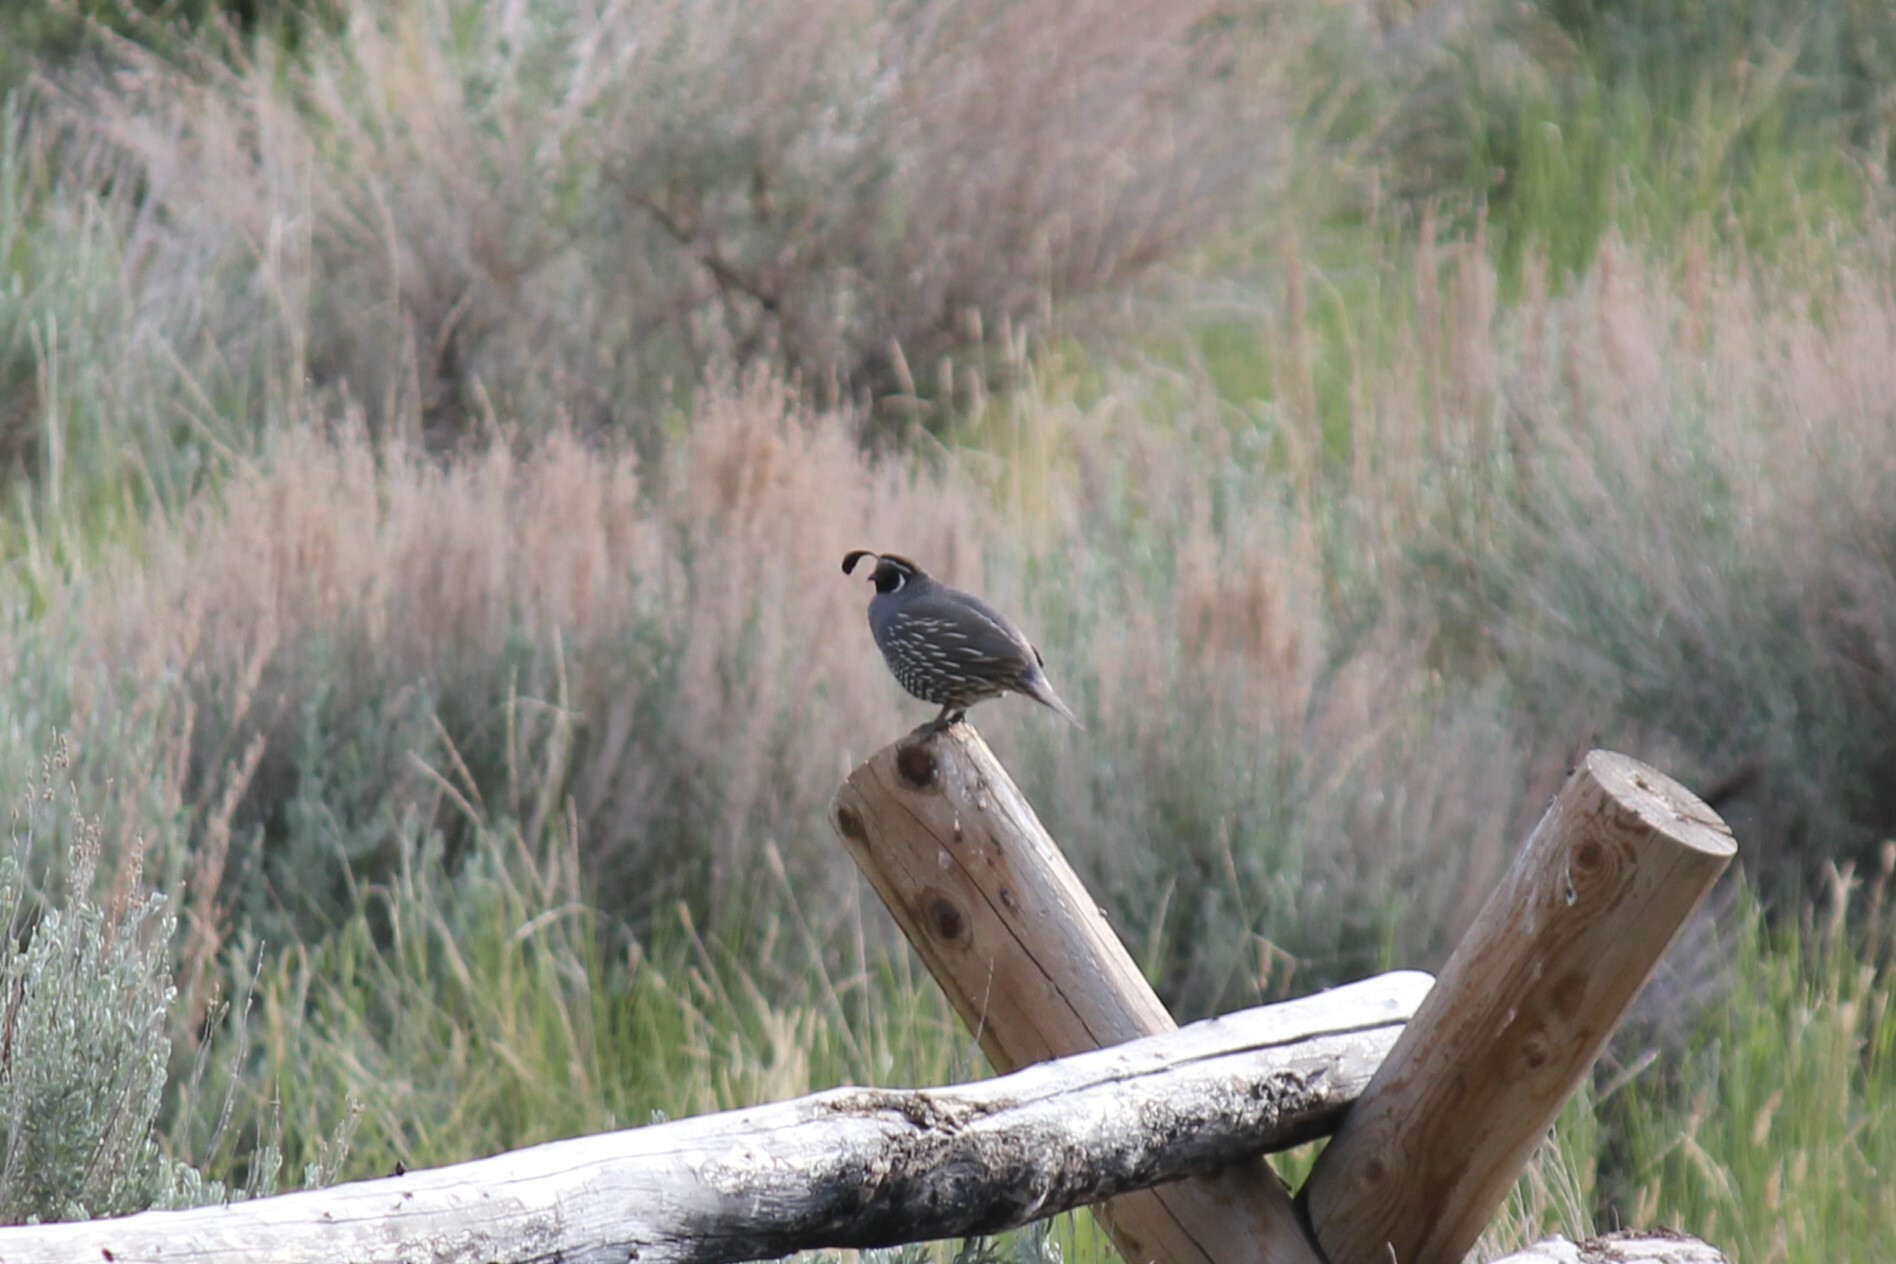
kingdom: Animalia
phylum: Chordata
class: Aves
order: Galliformes
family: Odontophoridae
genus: Callipepla
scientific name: Callipepla californica
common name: California quail
